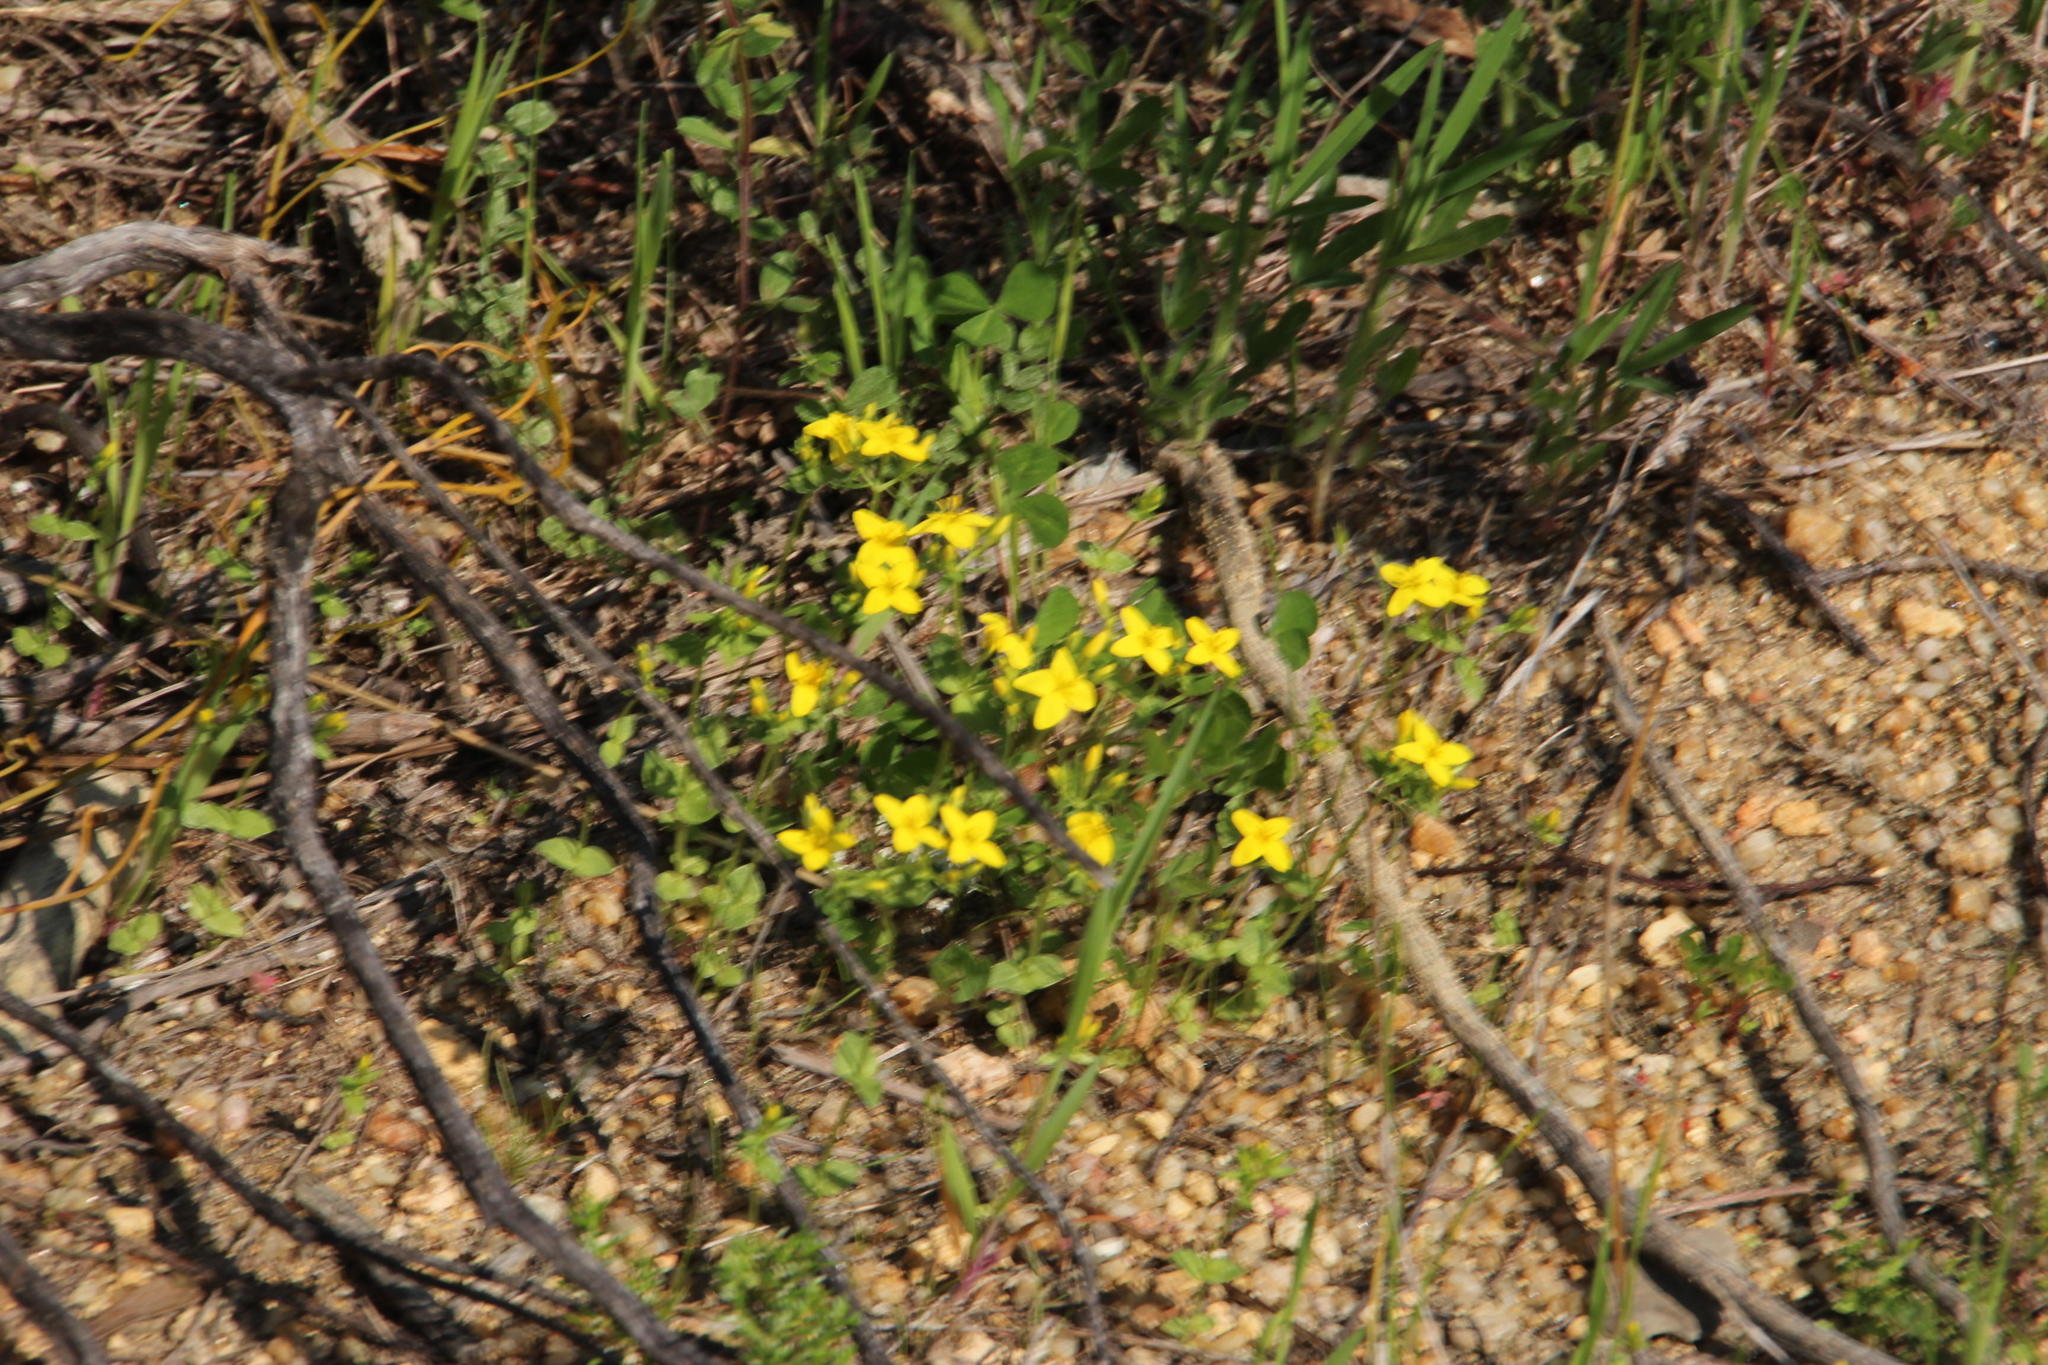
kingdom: Plantae
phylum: Tracheophyta
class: Magnoliopsida
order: Gentianales
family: Gentianaceae
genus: Sebaea
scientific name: Sebaea aurea
